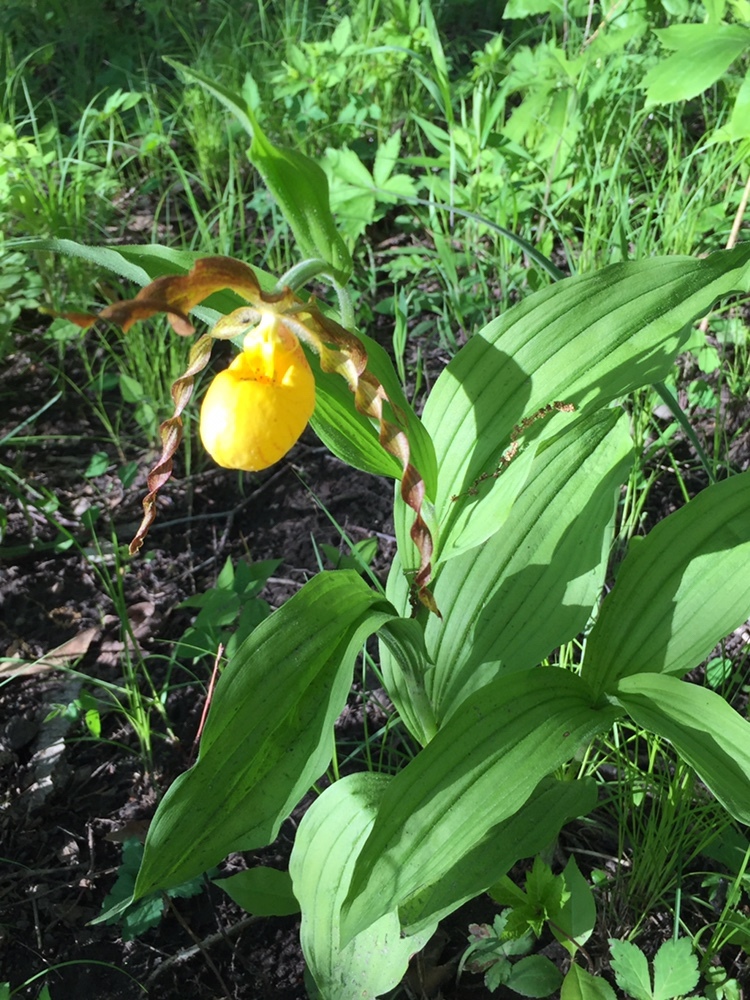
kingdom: Plantae
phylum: Tracheophyta
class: Liliopsida
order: Asparagales
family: Orchidaceae
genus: Cypripedium
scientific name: Cypripedium parviflorum
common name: American yellow lady's-slipper
